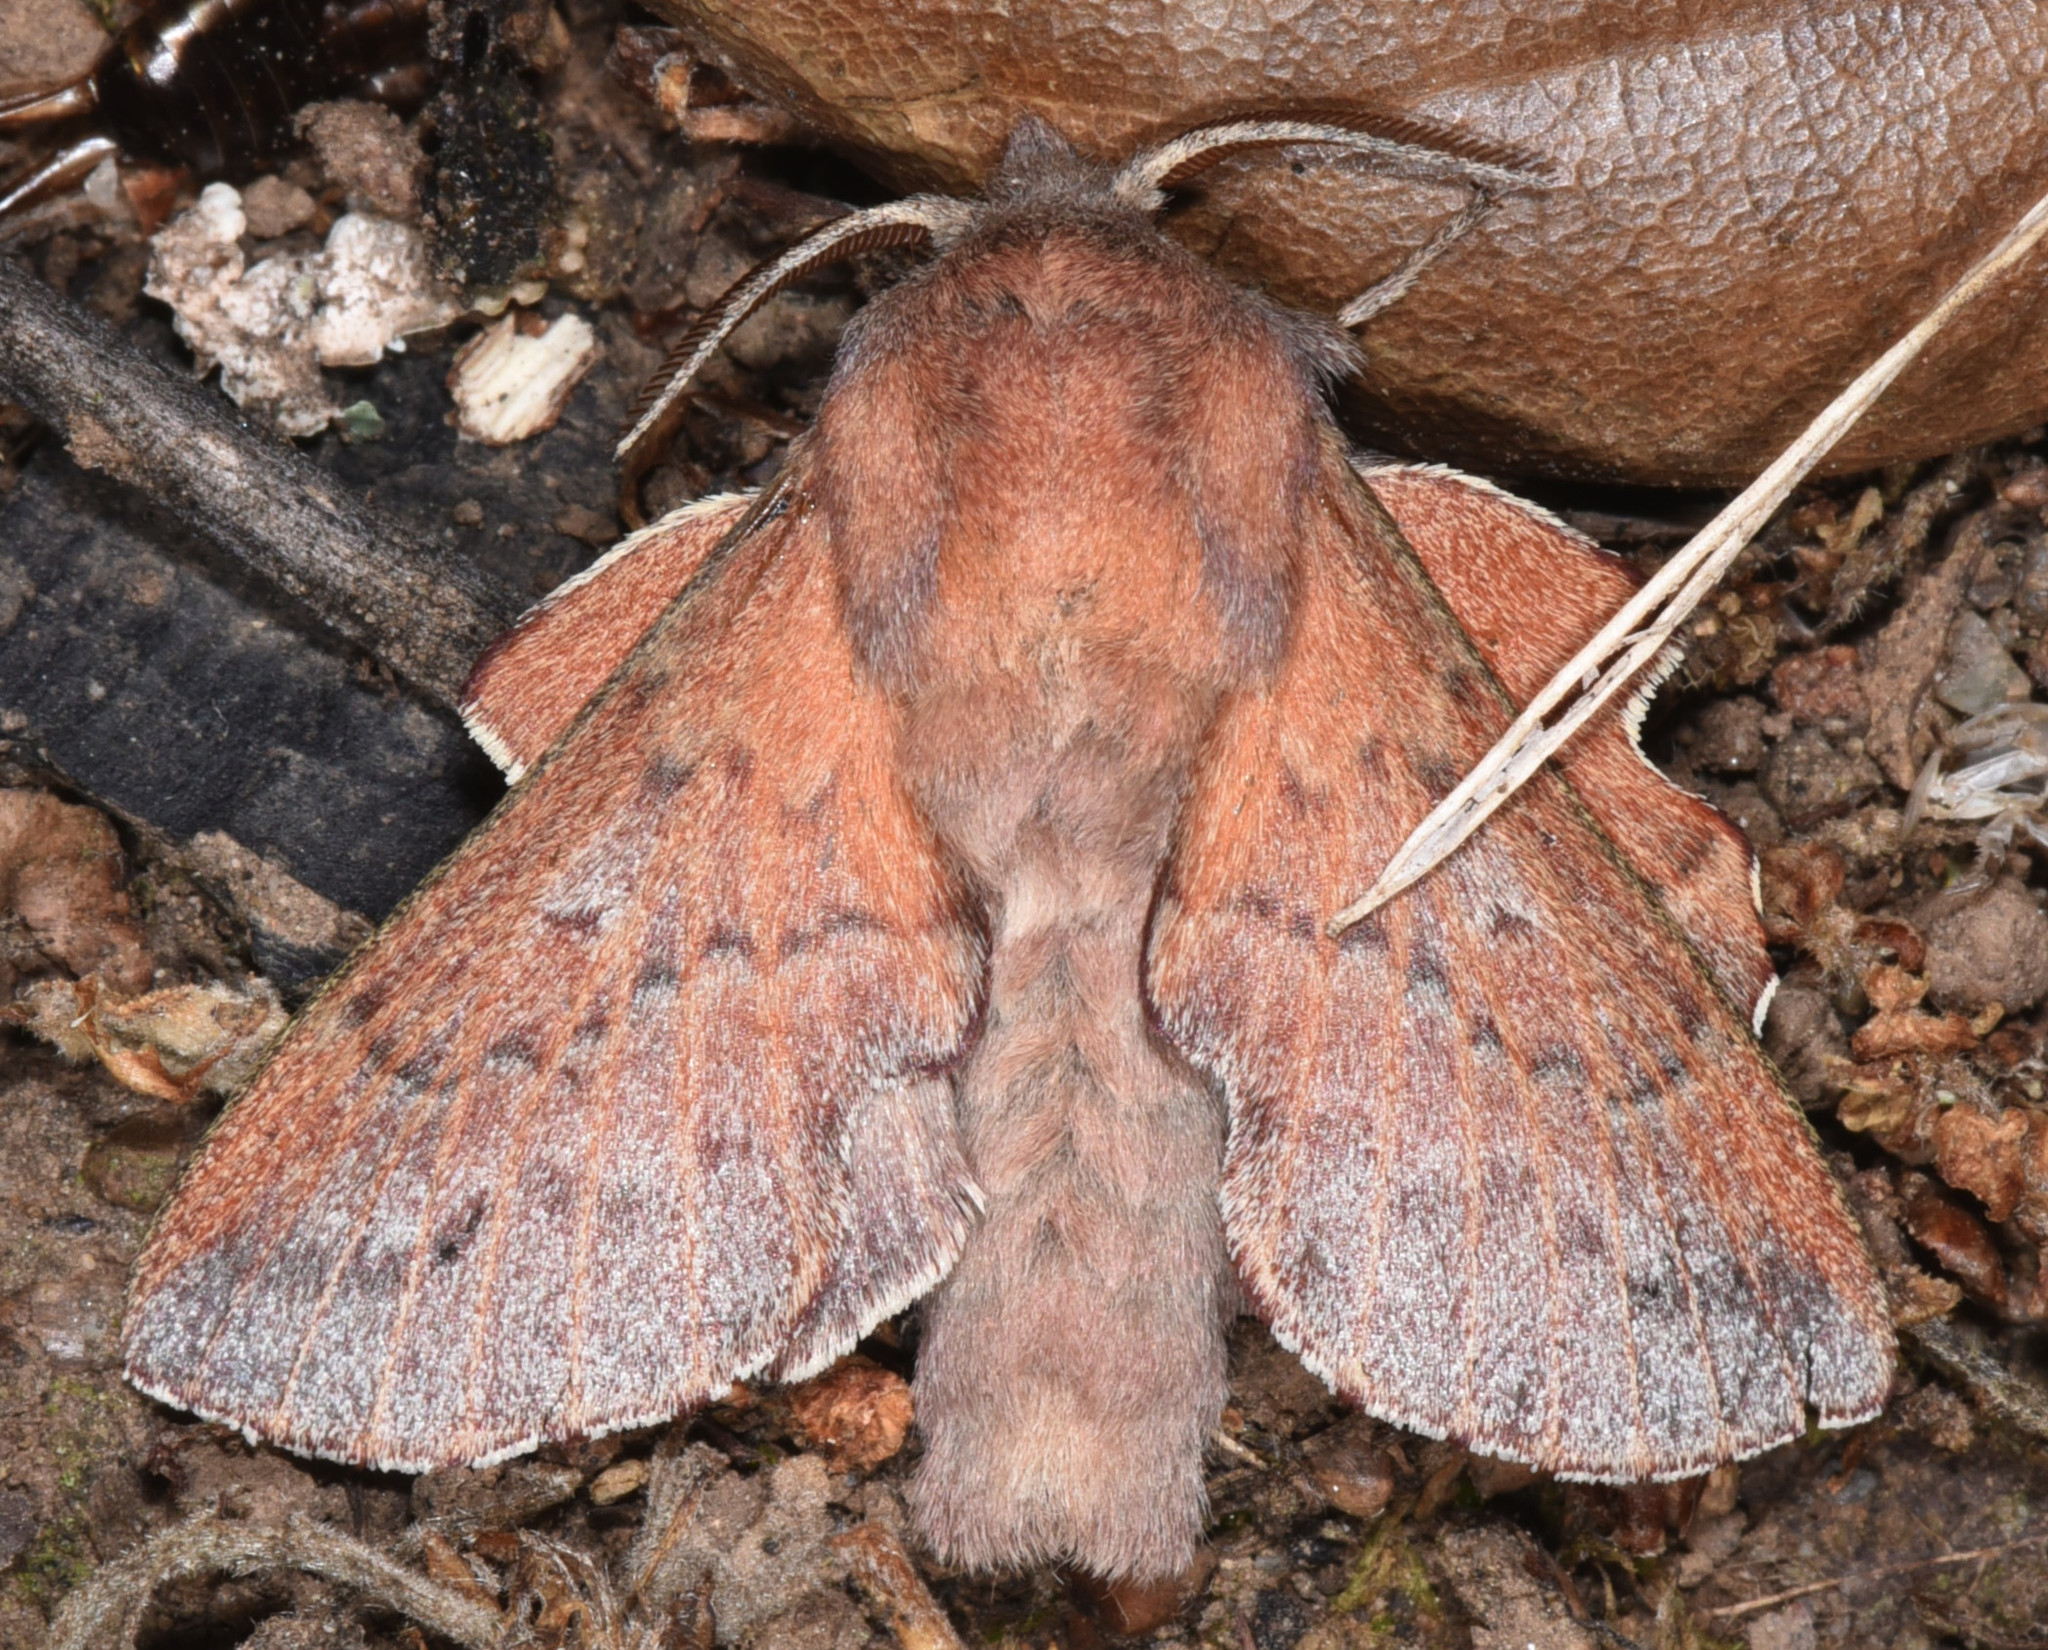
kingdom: Animalia
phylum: Arthropoda
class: Insecta
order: Lepidoptera
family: Lasiocampidae
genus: Phyllodesma
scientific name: Phyllodesma americana
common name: American lappet moth
